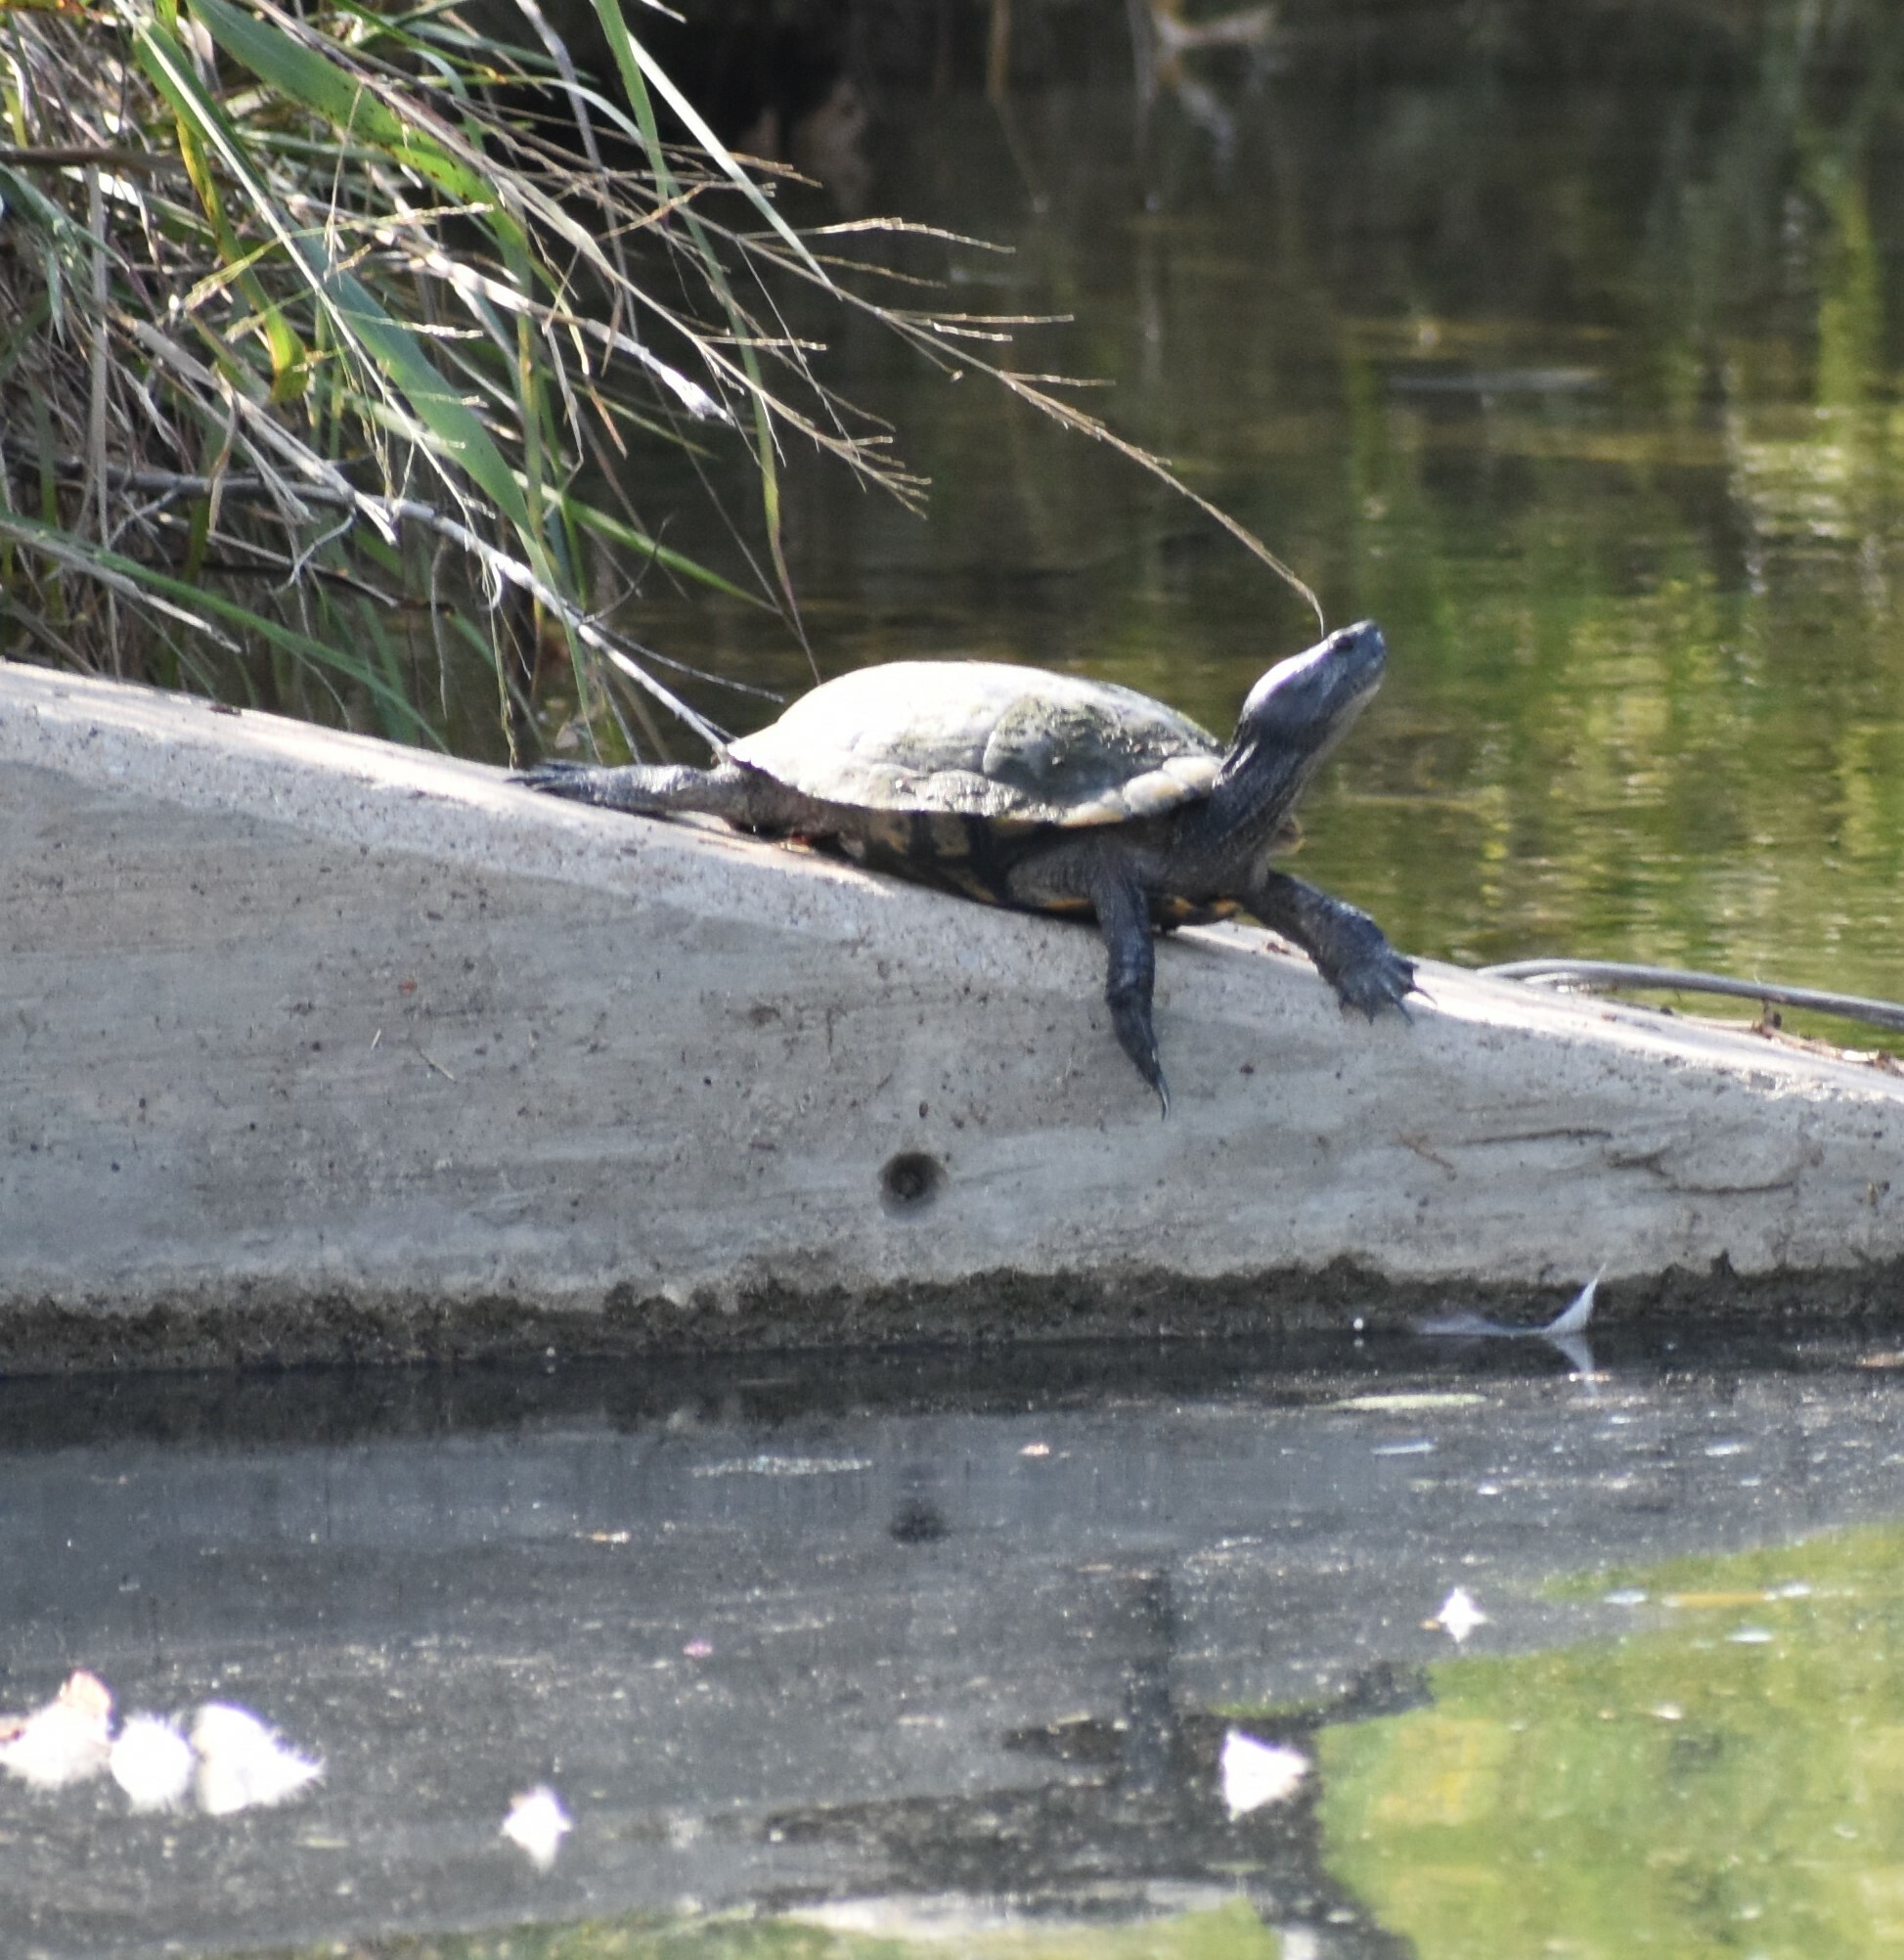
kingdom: Animalia
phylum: Chordata
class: Testudines
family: Emydidae
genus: Trachemys
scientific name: Trachemys scripta
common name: Slider
